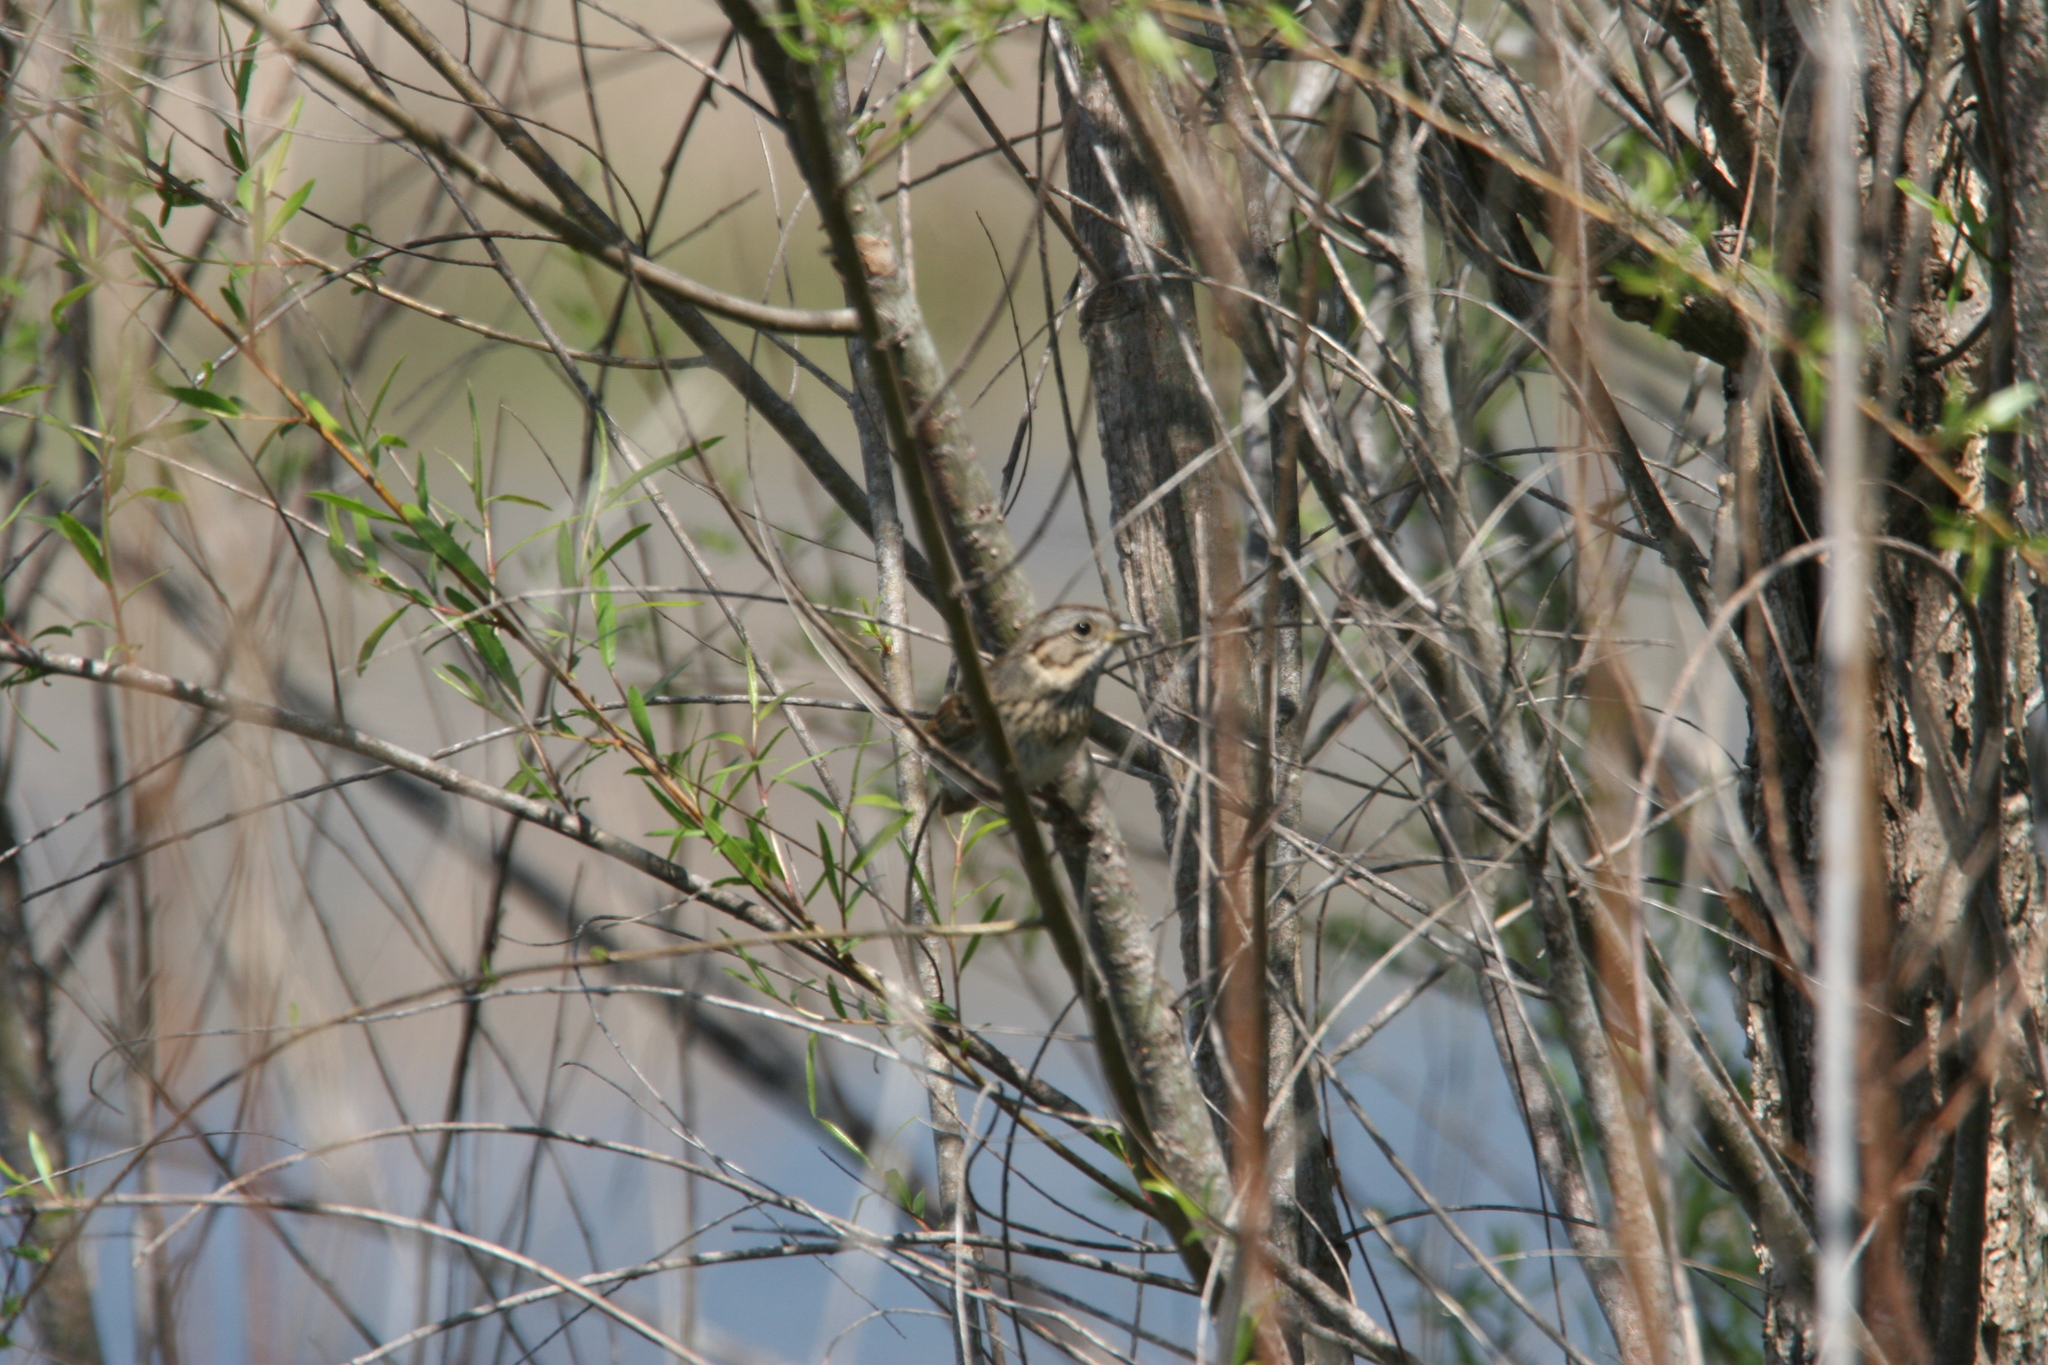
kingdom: Animalia
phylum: Chordata
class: Aves
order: Passeriformes
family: Passerellidae
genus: Melospiza
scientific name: Melospiza lincolnii
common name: Lincoln's sparrow
